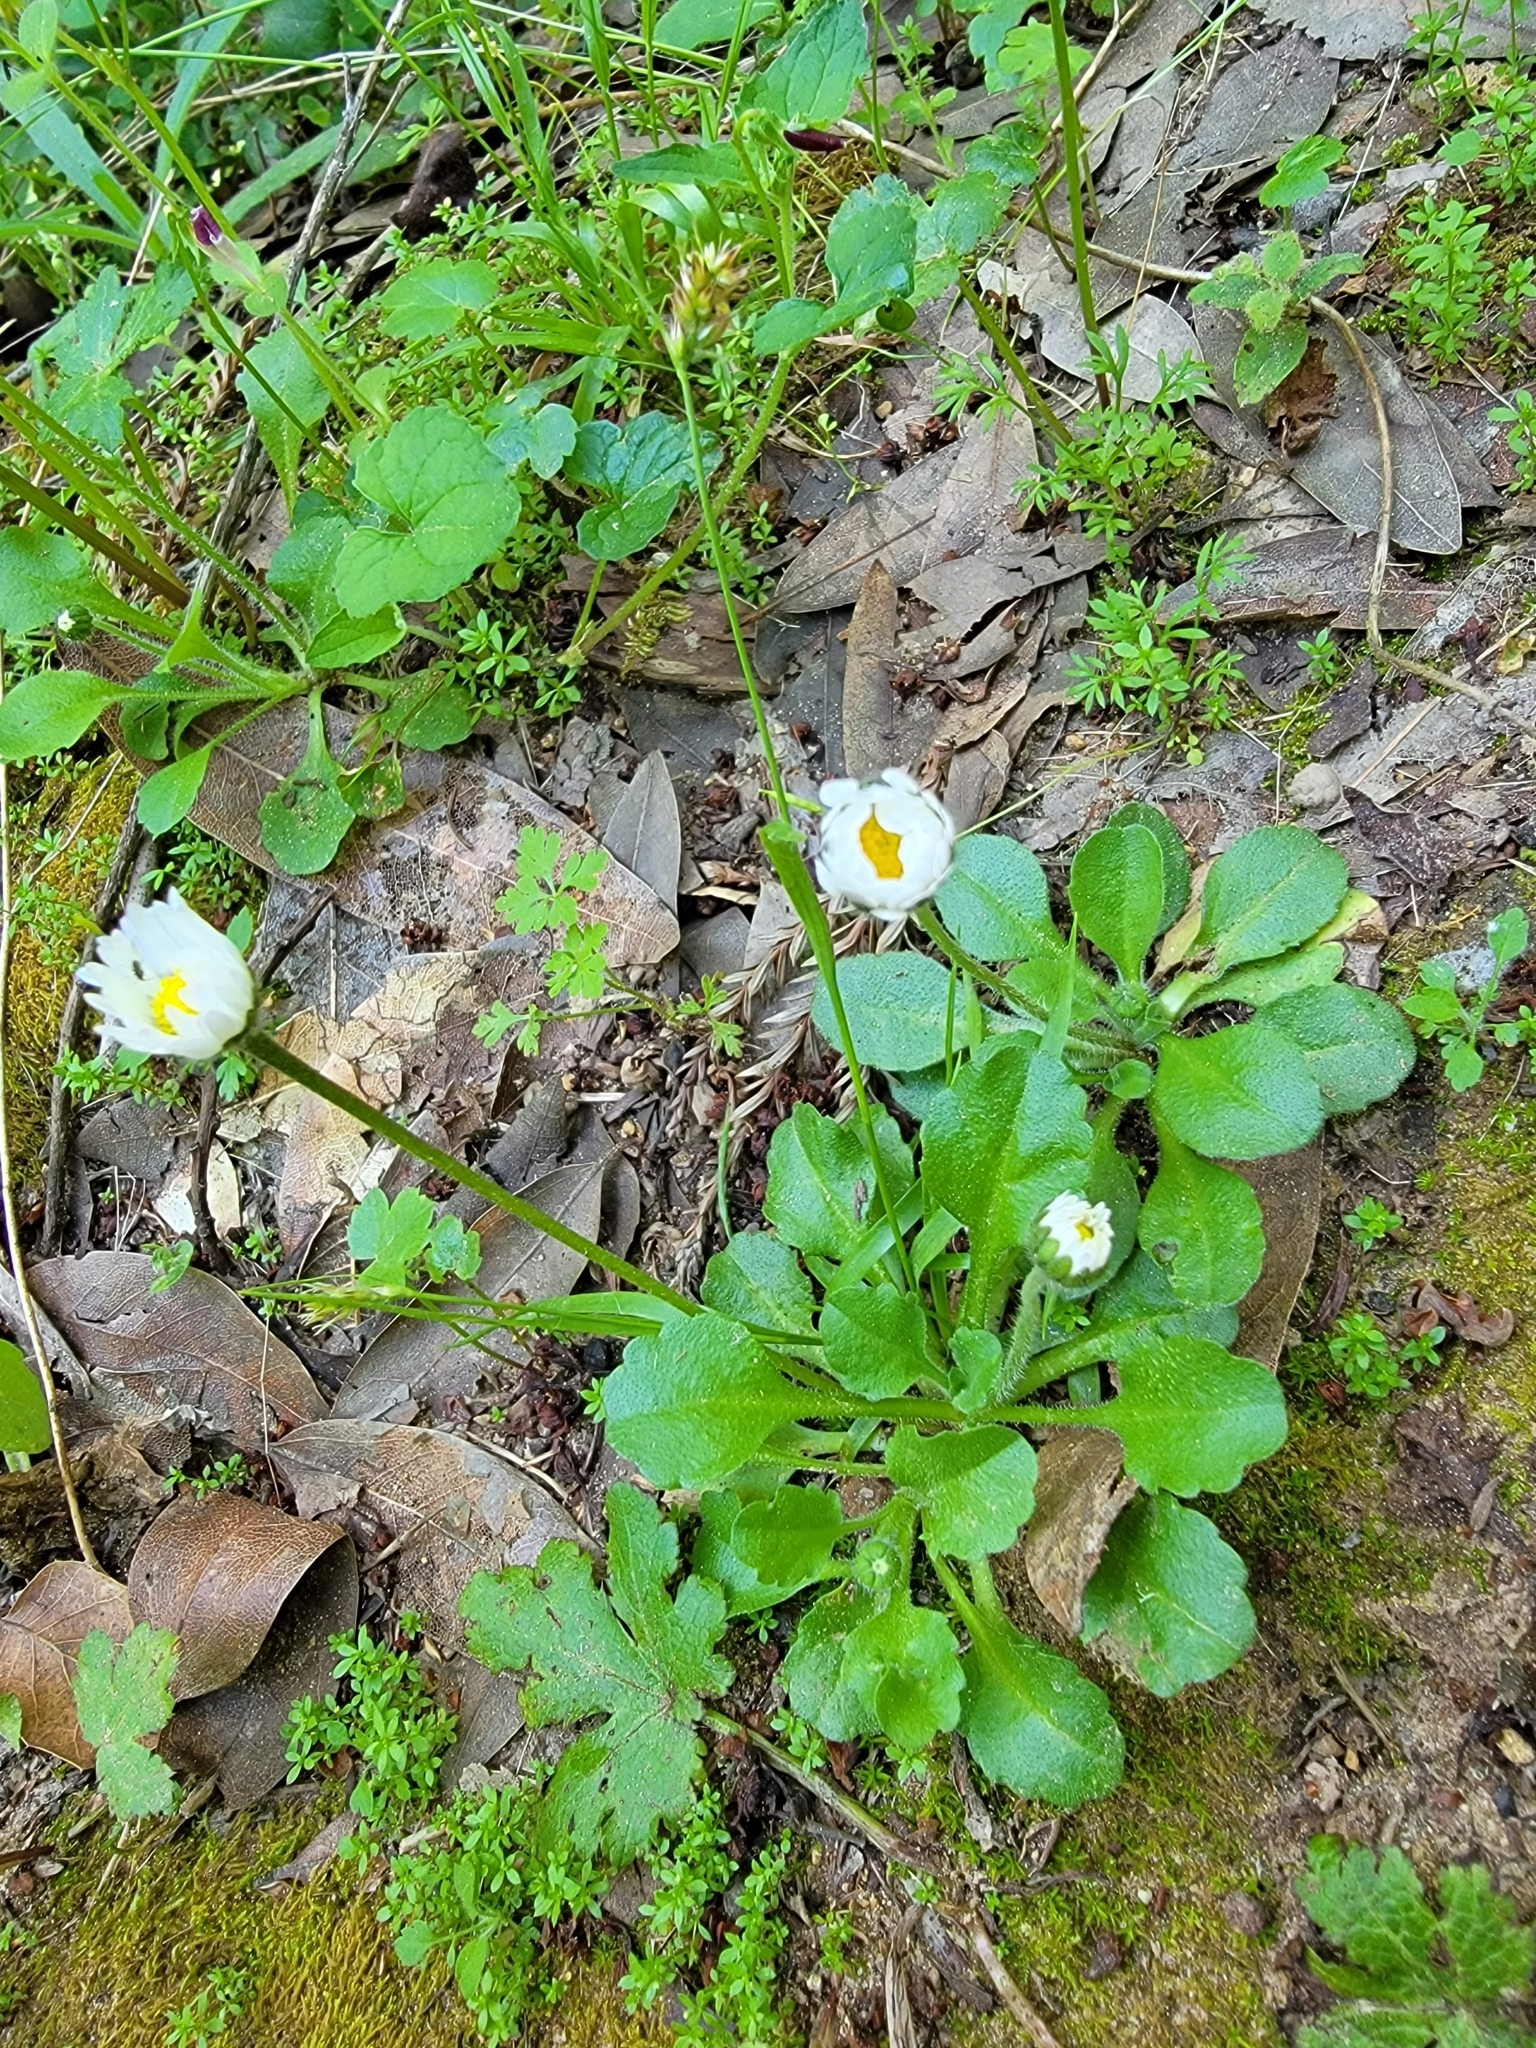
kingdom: Plantae
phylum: Tracheophyta
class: Magnoliopsida
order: Asterales
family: Asteraceae
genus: Bellis
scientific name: Bellis perennis
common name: Lawndaisy
